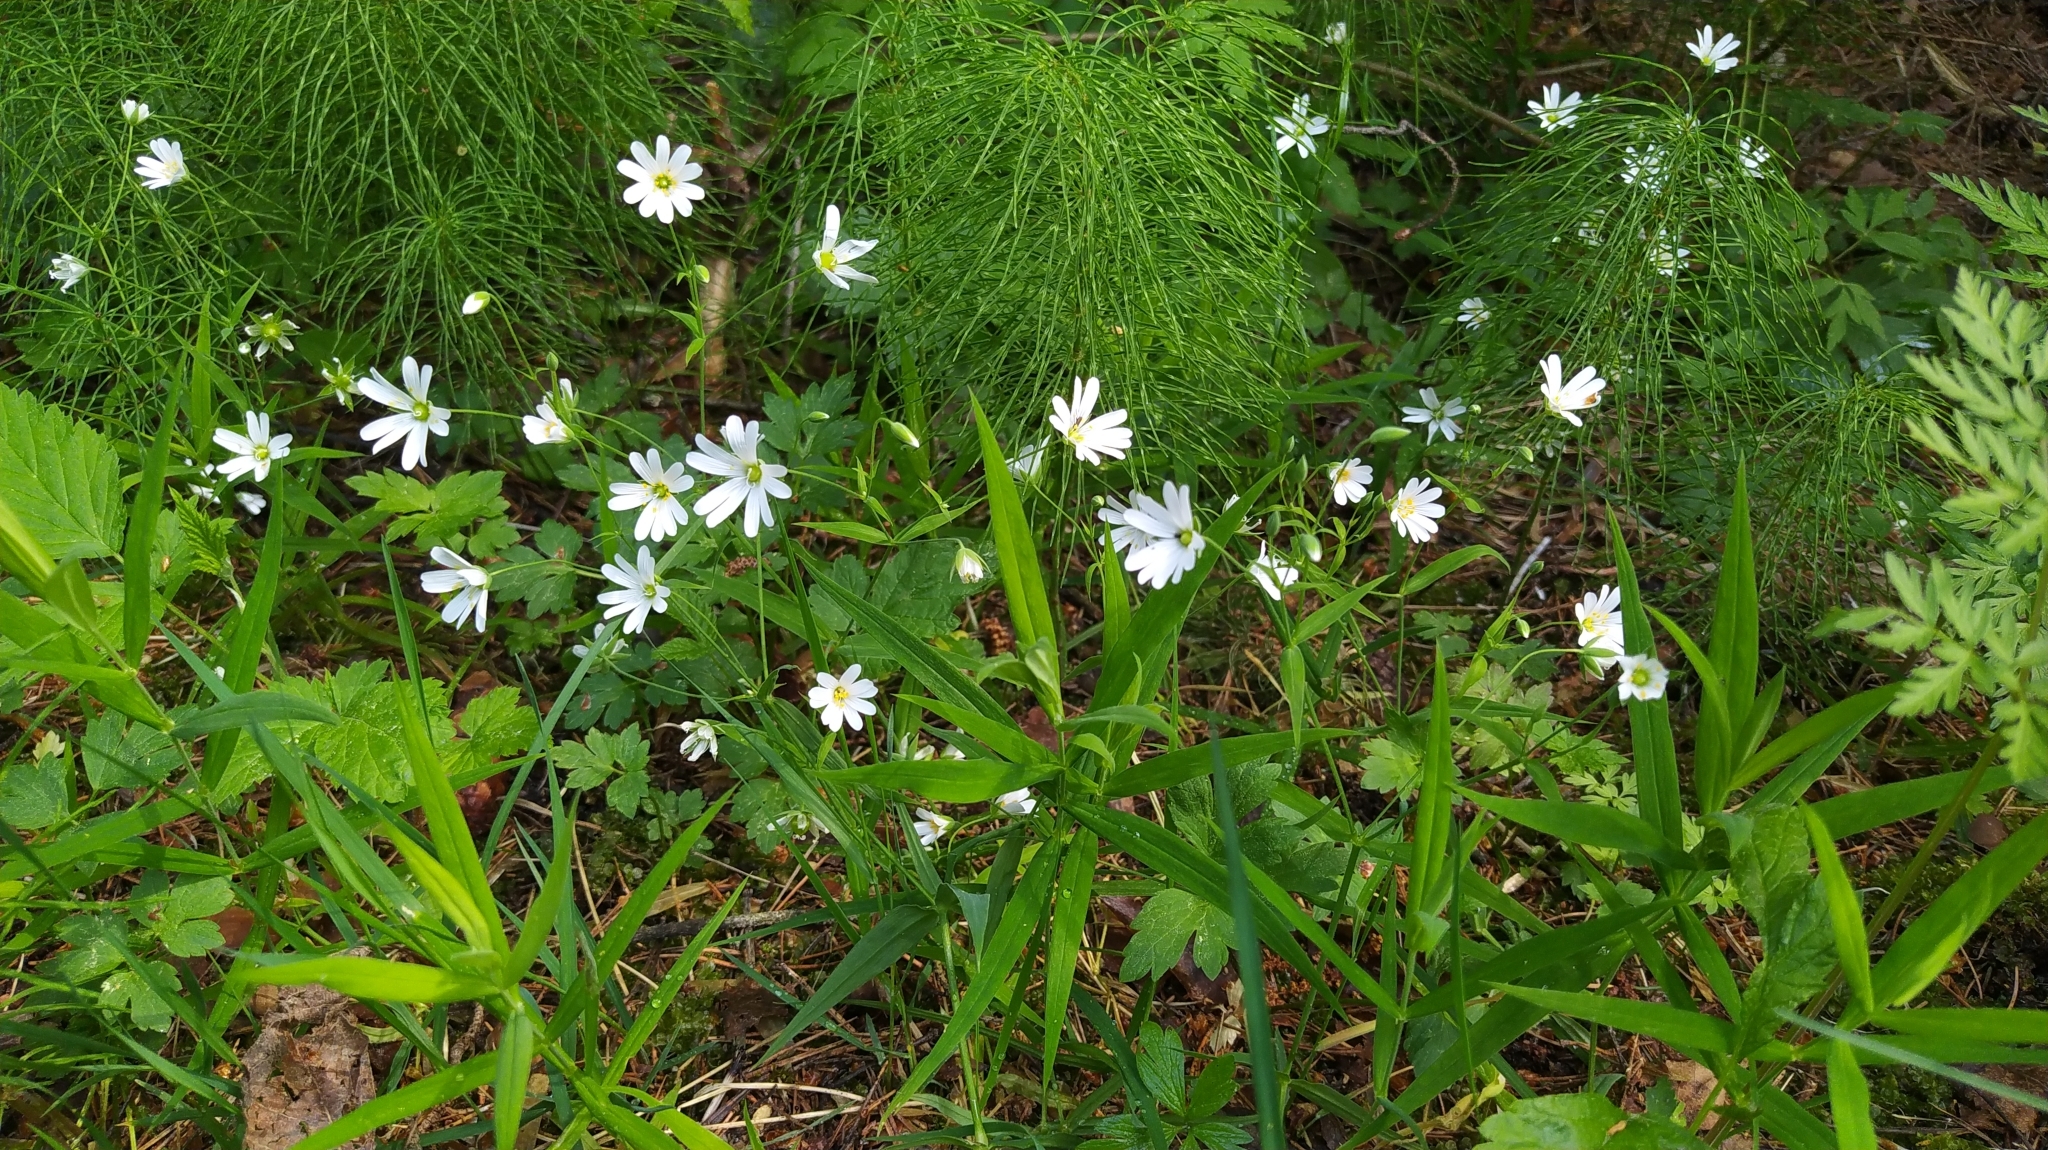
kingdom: Plantae
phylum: Tracheophyta
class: Magnoliopsida
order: Caryophyllales
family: Caryophyllaceae
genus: Rabelera
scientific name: Rabelera holostea
